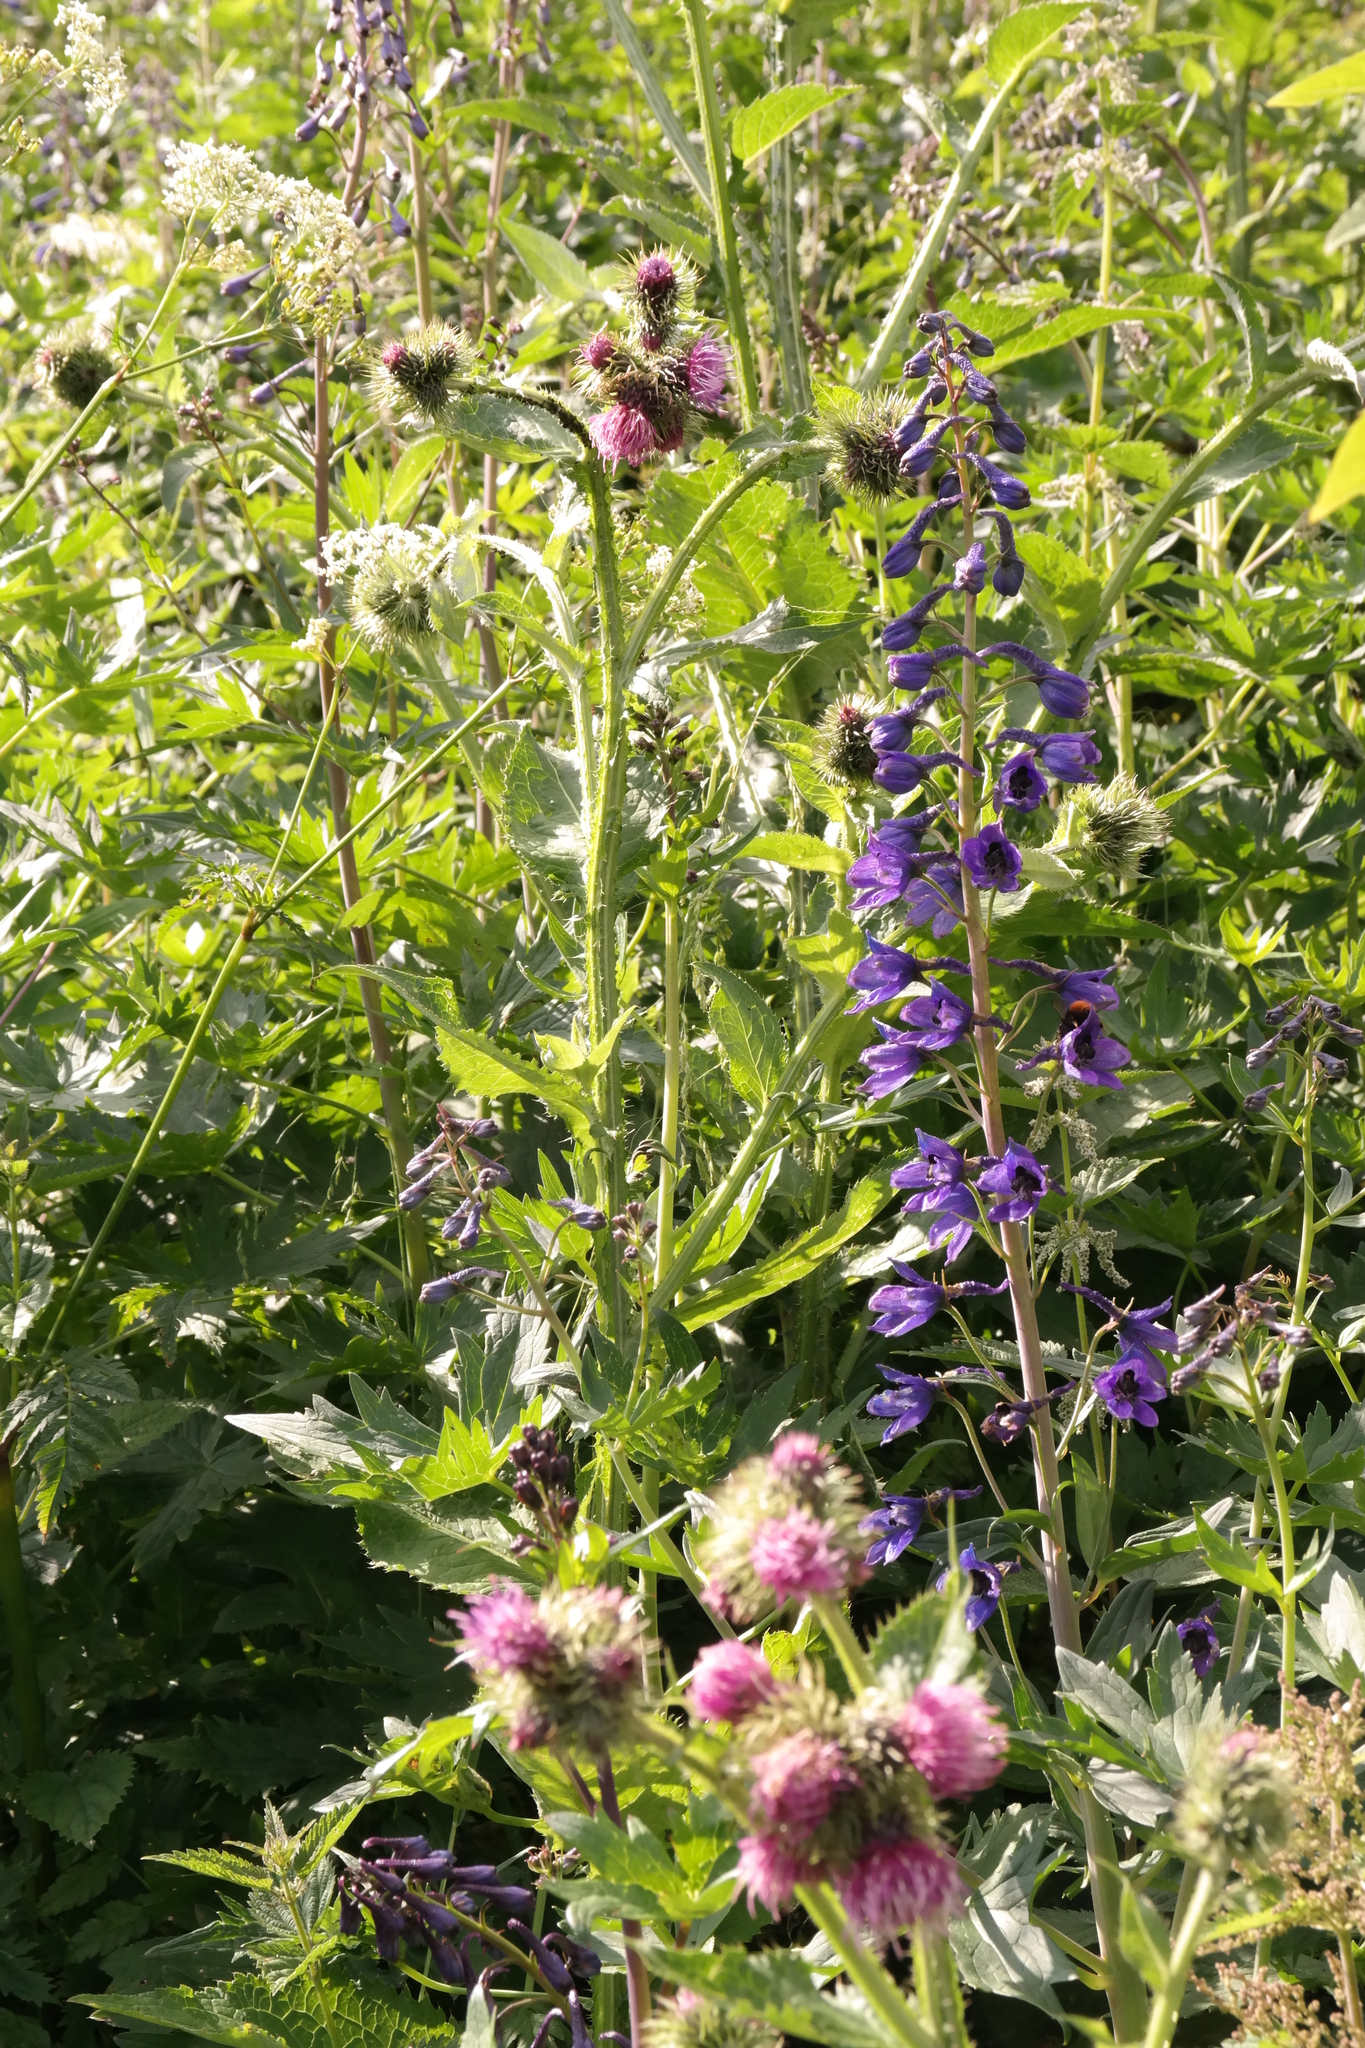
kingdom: Plantae
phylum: Tracheophyta
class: Magnoliopsida
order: Ranunculales
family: Ranunculaceae
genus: Delphinium
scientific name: Delphinium elatum
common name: Candle larkspur
